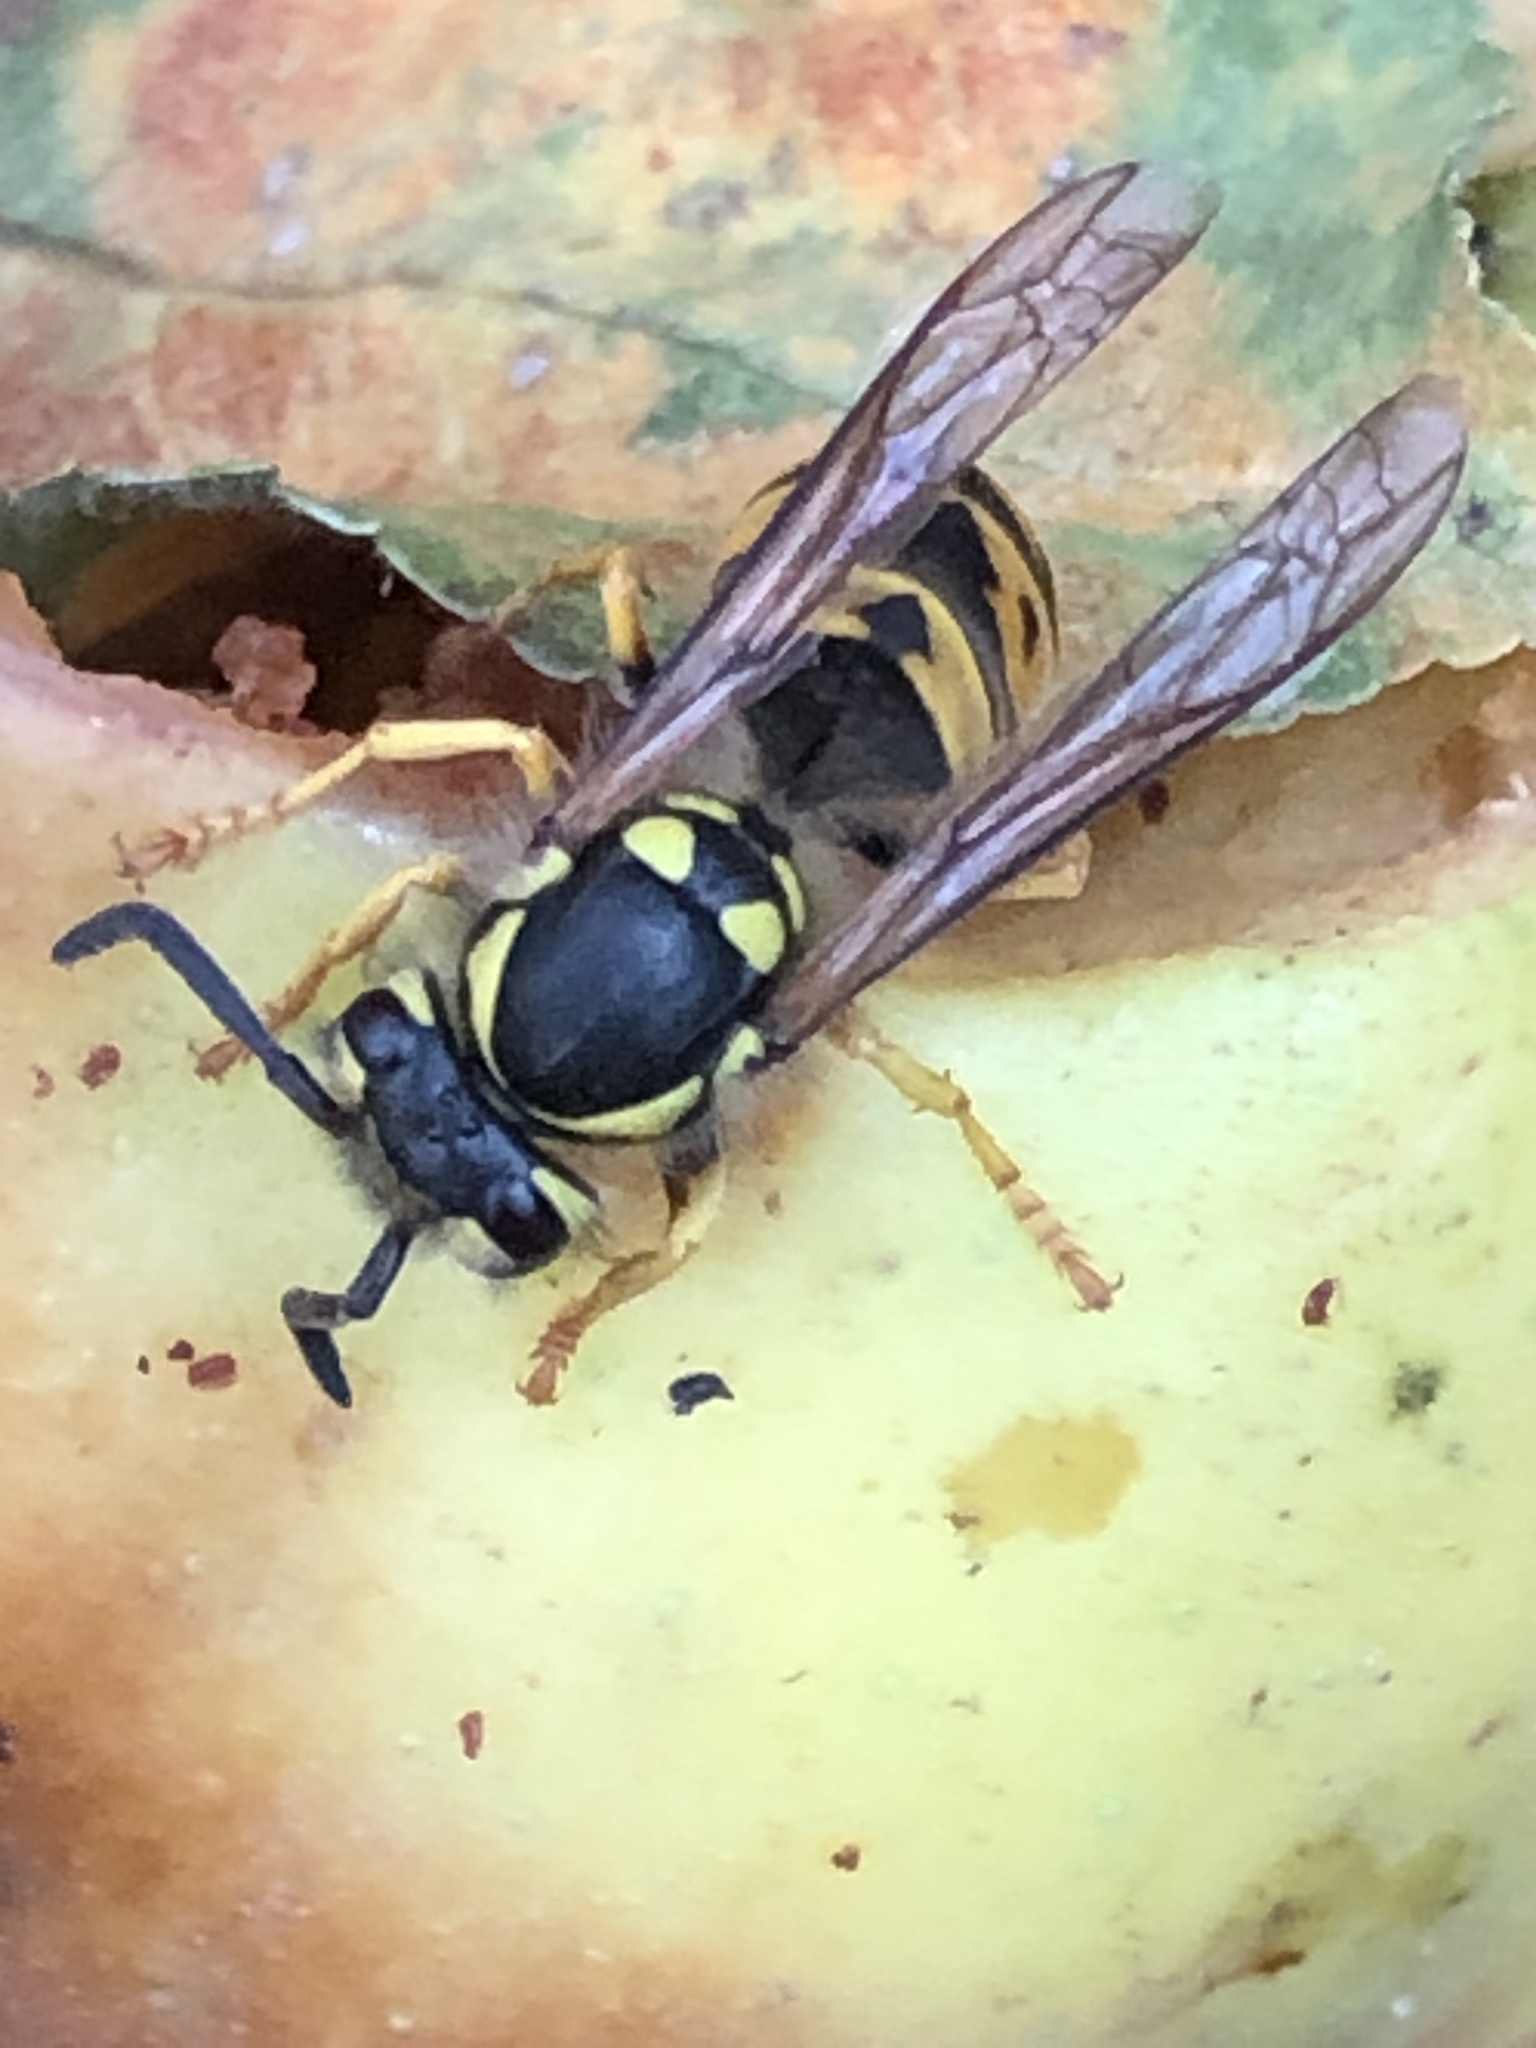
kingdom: Animalia
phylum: Arthropoda
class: Insecta
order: Hymenoptera
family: Vespidae
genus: Vespula
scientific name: Vespula germanica
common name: German wasp
